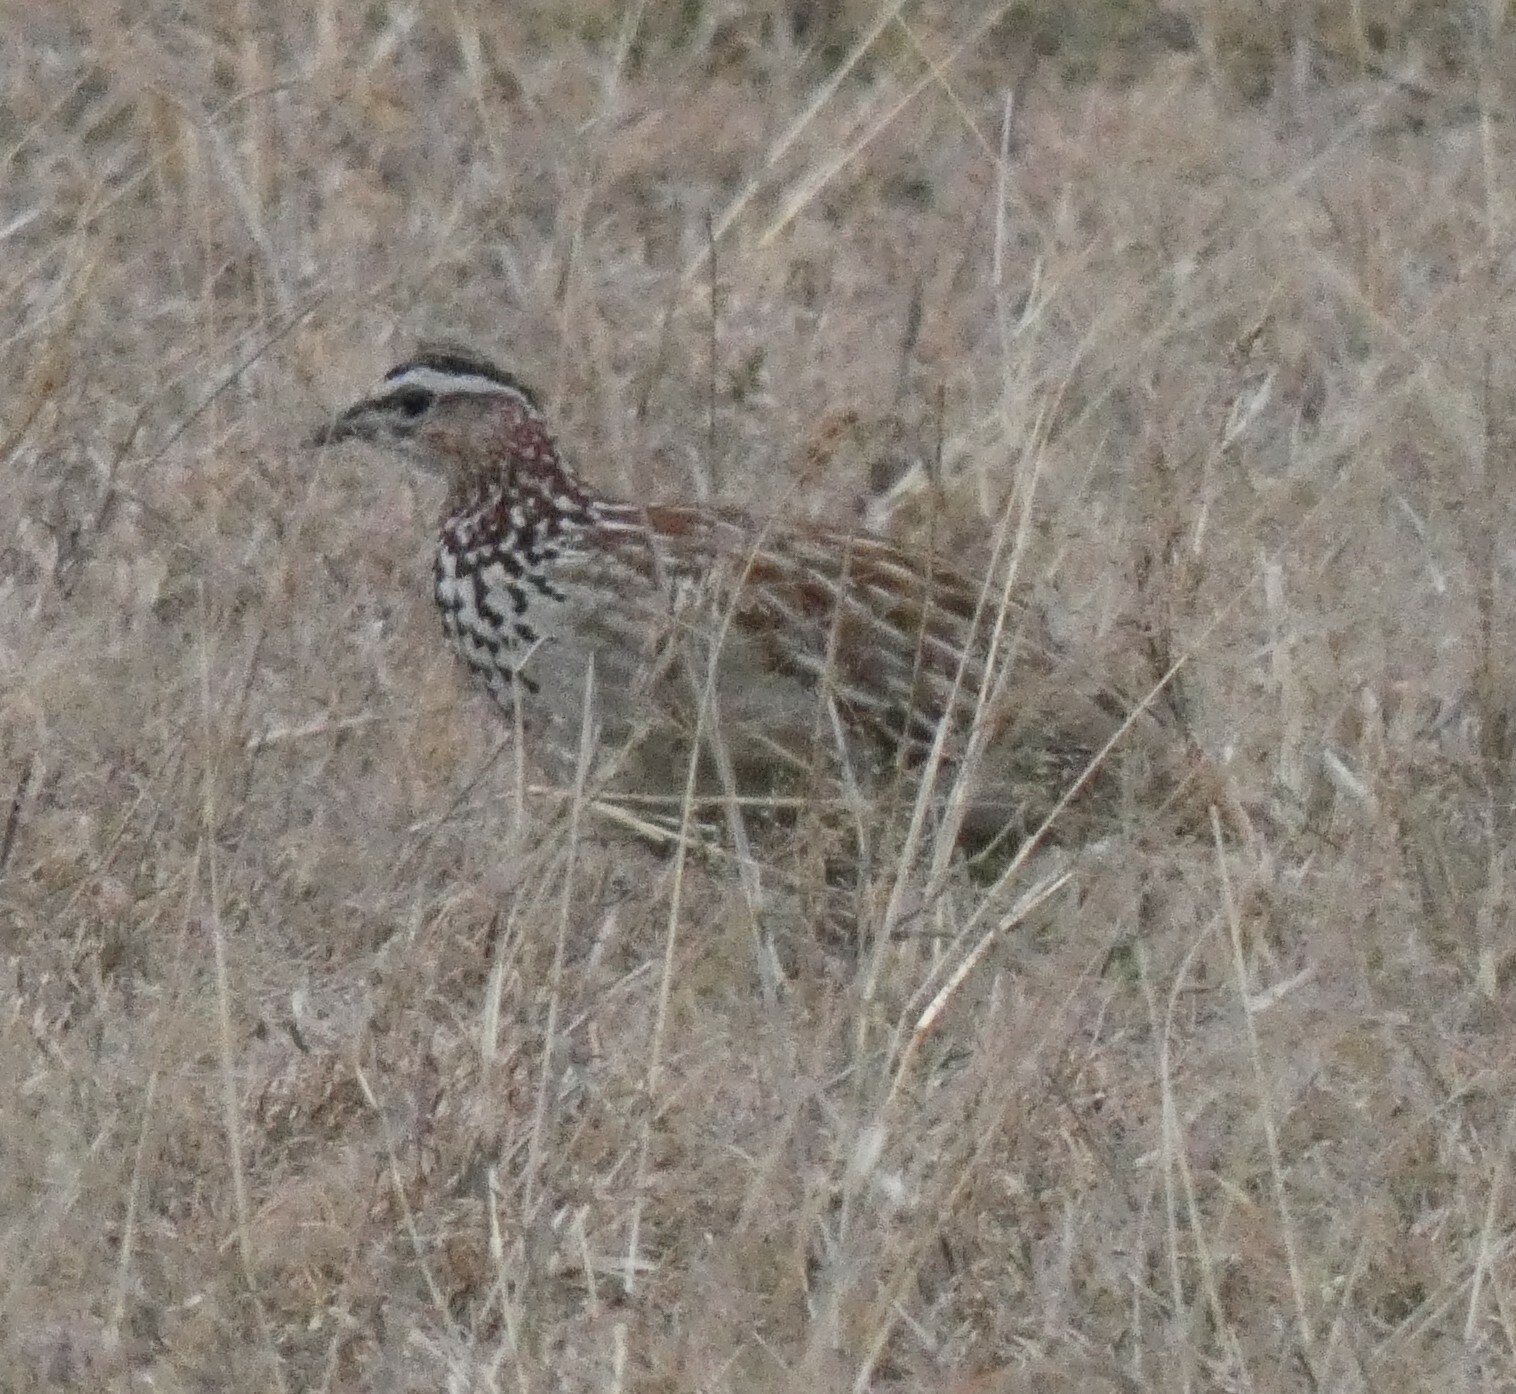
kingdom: Animalia
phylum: Chordata
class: Aves
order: Galliformes
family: Phasianidae
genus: Ortygornis
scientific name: Ortygornis sephaena
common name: Crested francolin
